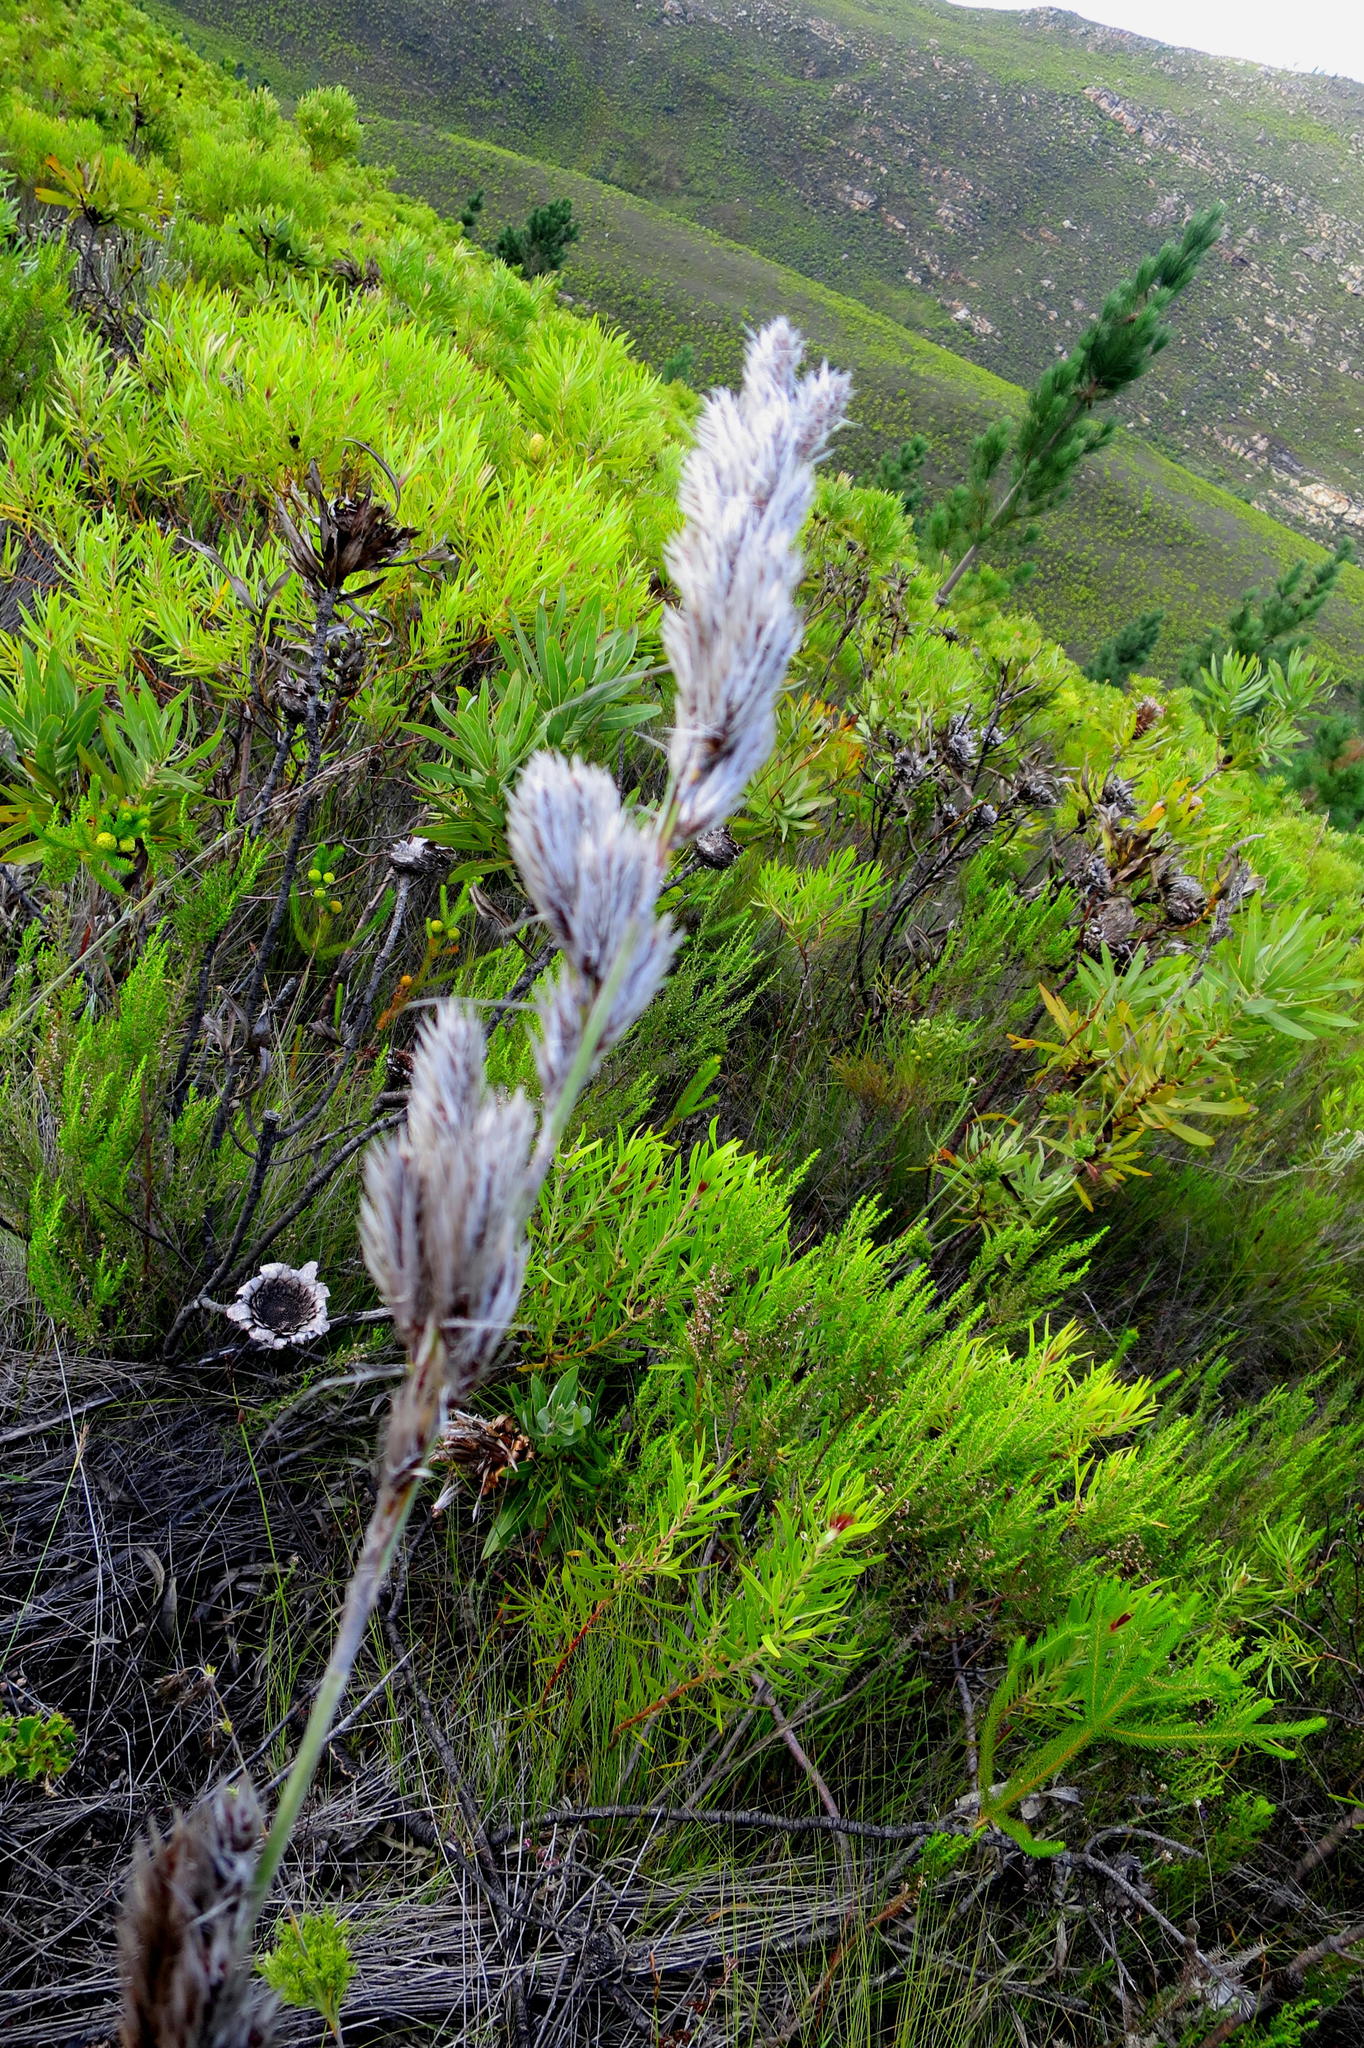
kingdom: Plantae
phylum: Tracheophyta
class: Liliopsida
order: Poales
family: Restionaceae
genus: Thamnochortus
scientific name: Thamnochortus cinereus
